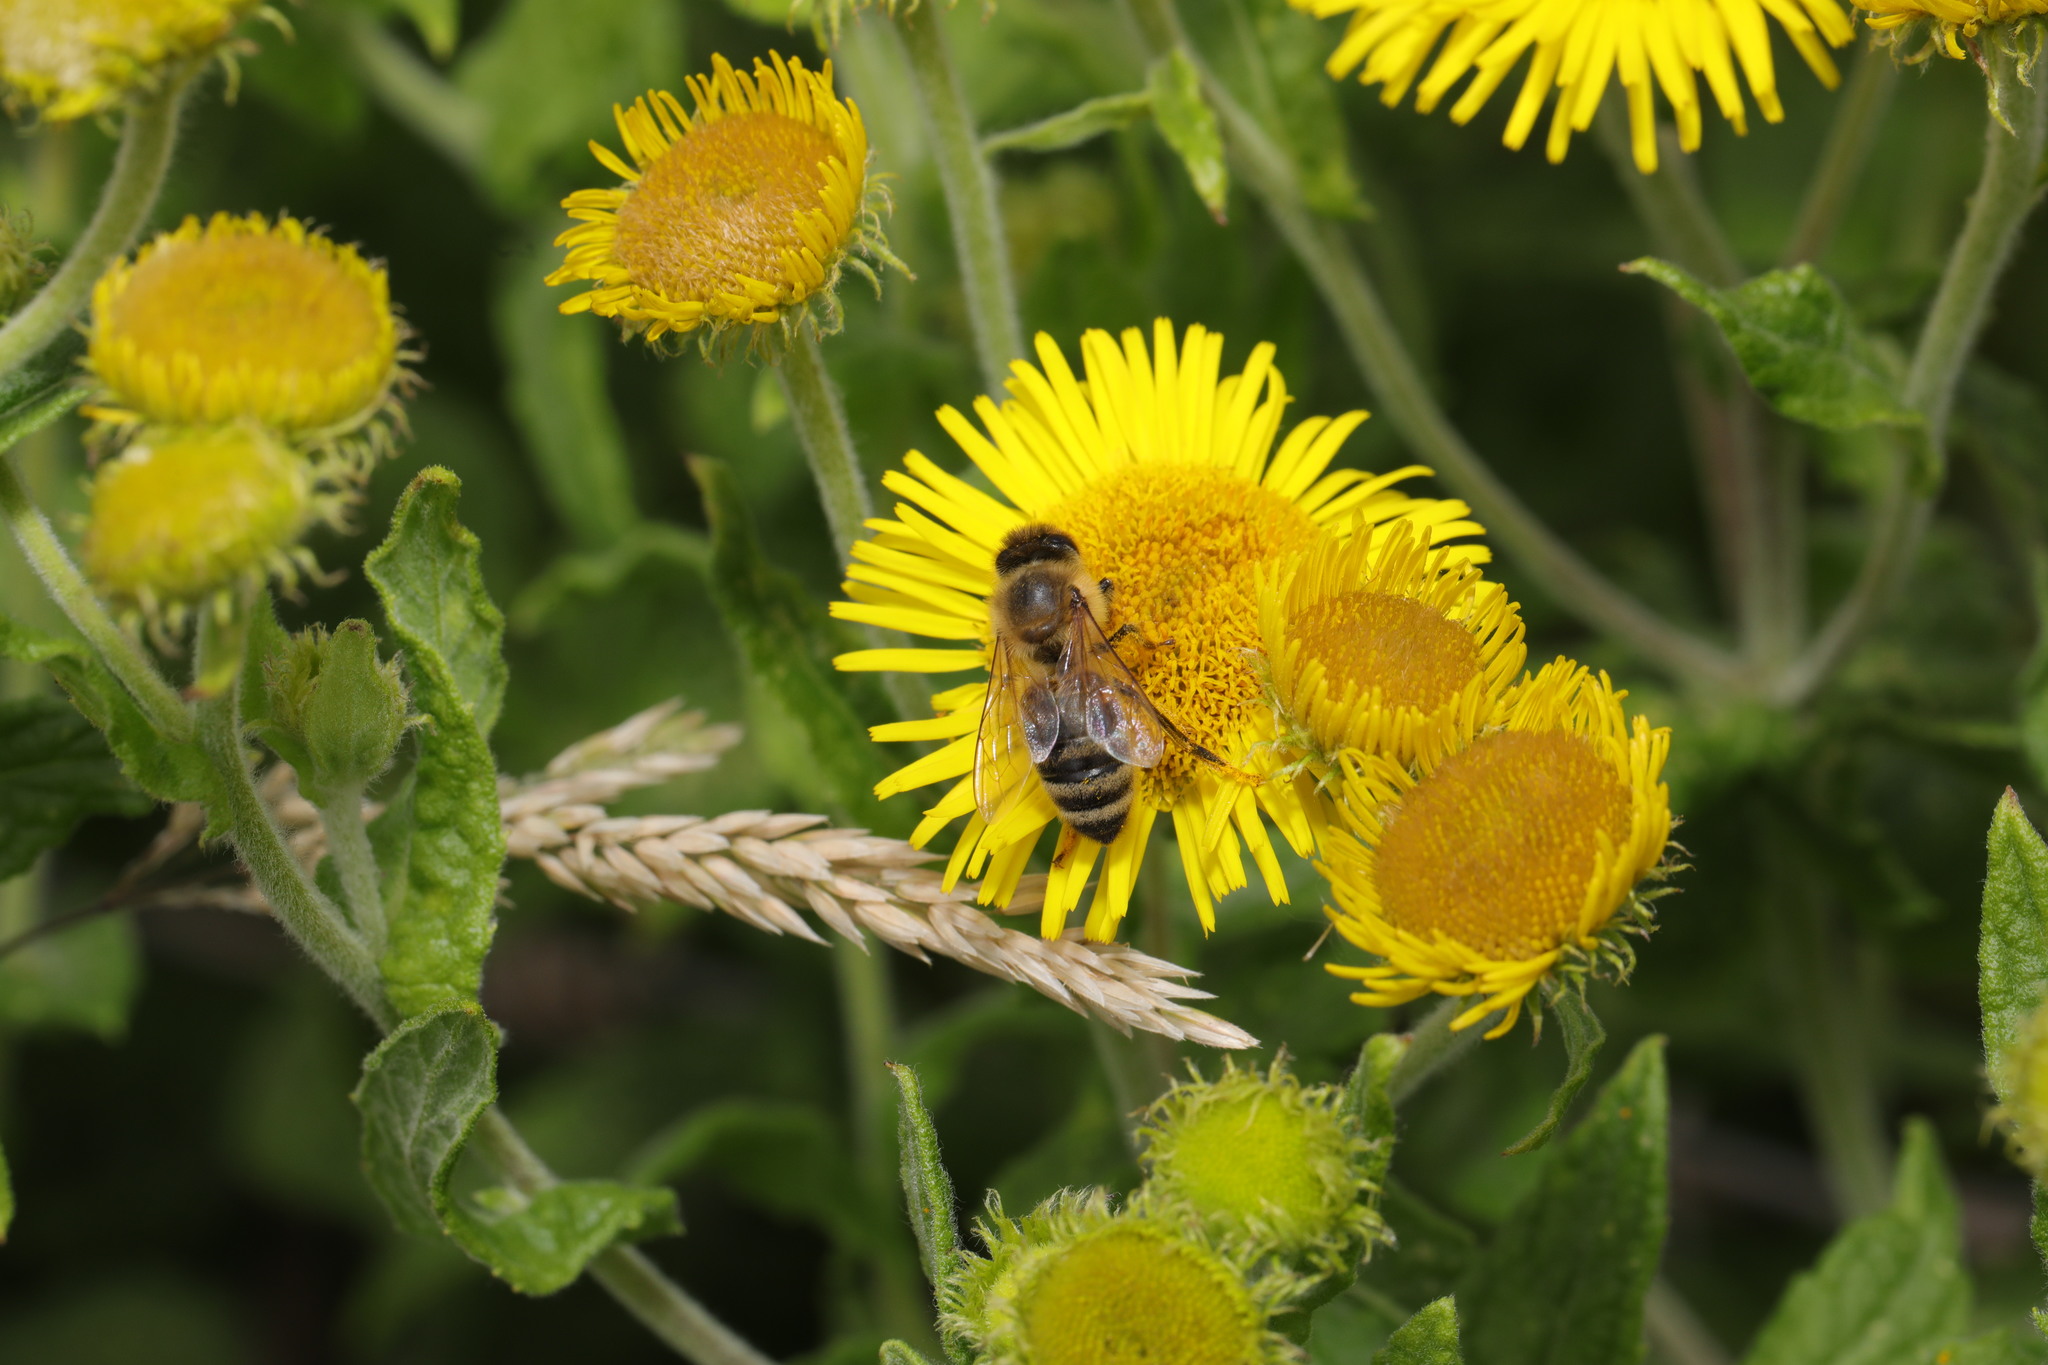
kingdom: Animalia
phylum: Arthropoda
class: Insecta
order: Hymenoptera
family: Apidae
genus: Apis
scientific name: Apis mellifera
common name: Honey bee
